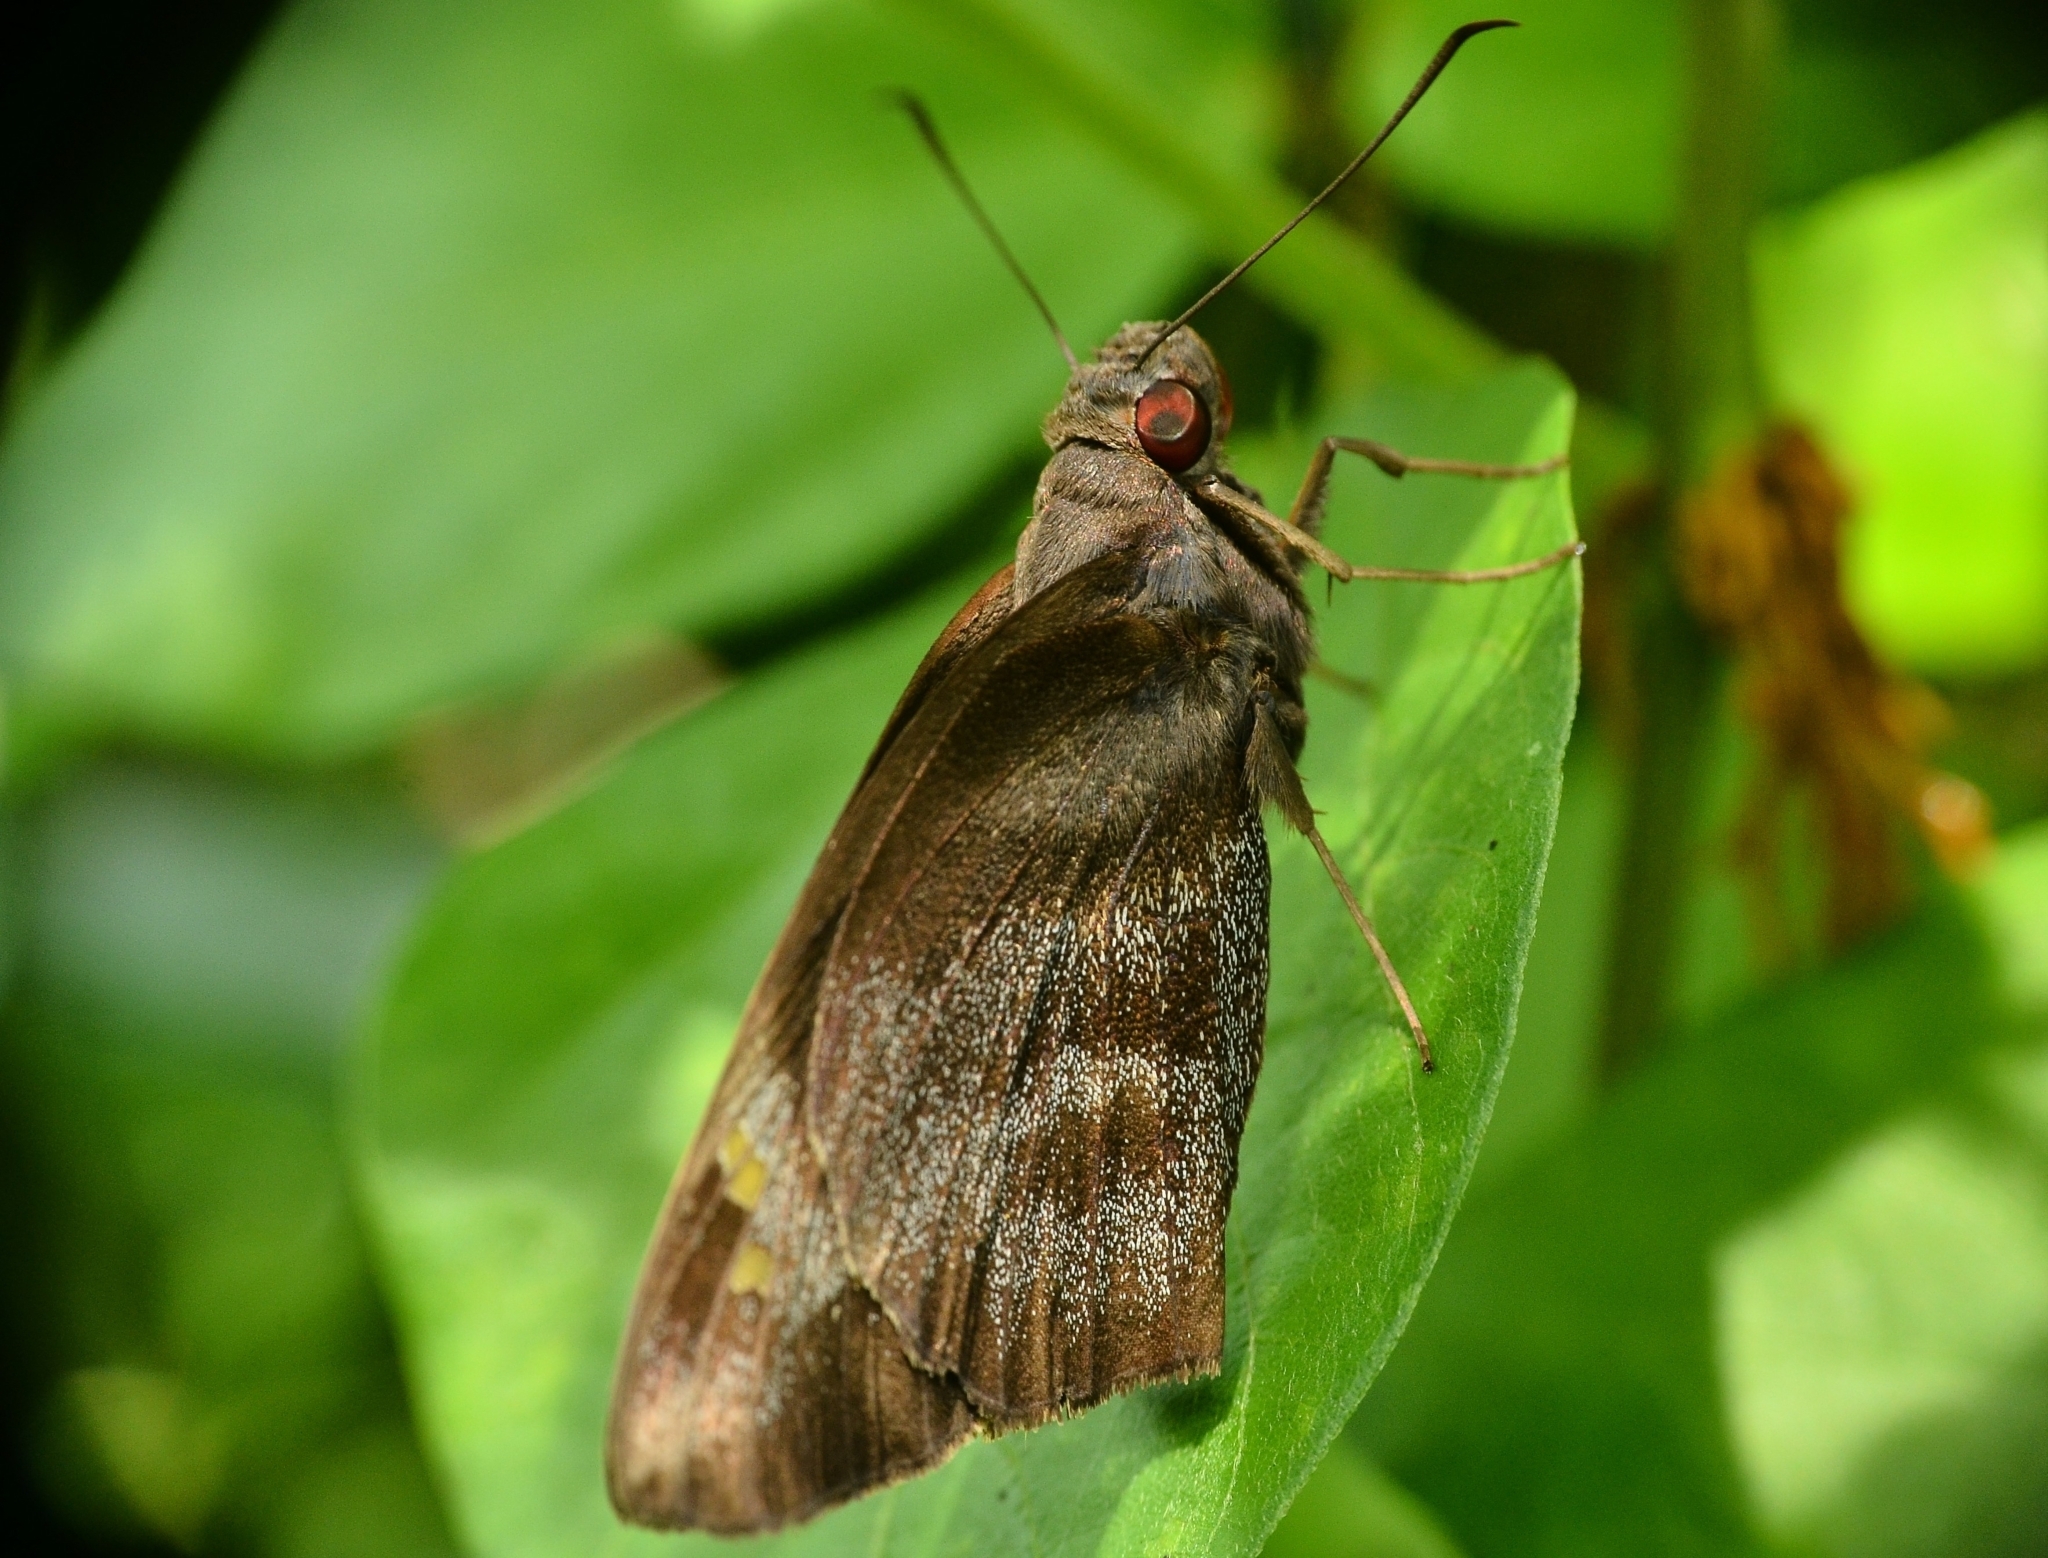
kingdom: Animalia
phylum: Arthropoda
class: Insecta
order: Lepidoptera
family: Hesperiidae
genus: Gangara
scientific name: Gangara thyrsis
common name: Giant redeye
